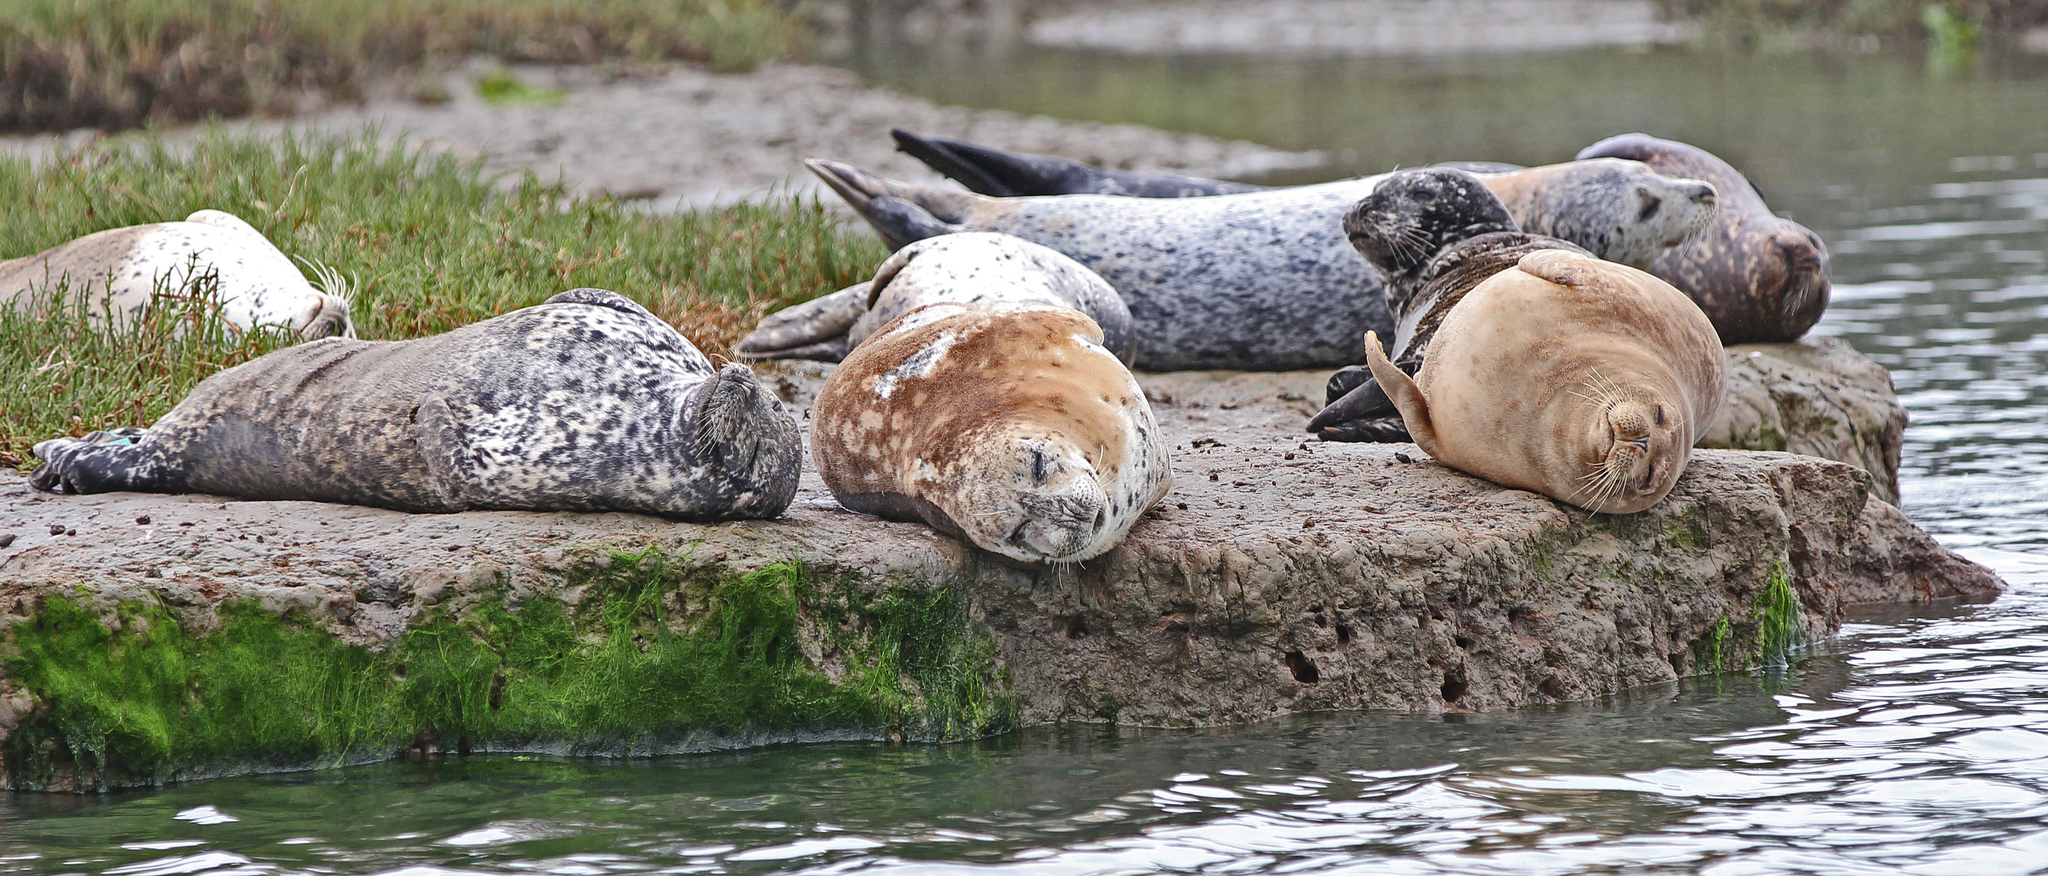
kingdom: Animalia
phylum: Chordata
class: Mammalia
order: Carnivora
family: Phocidae
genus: Phoca
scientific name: Phoca vitulina
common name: Harbor seal
